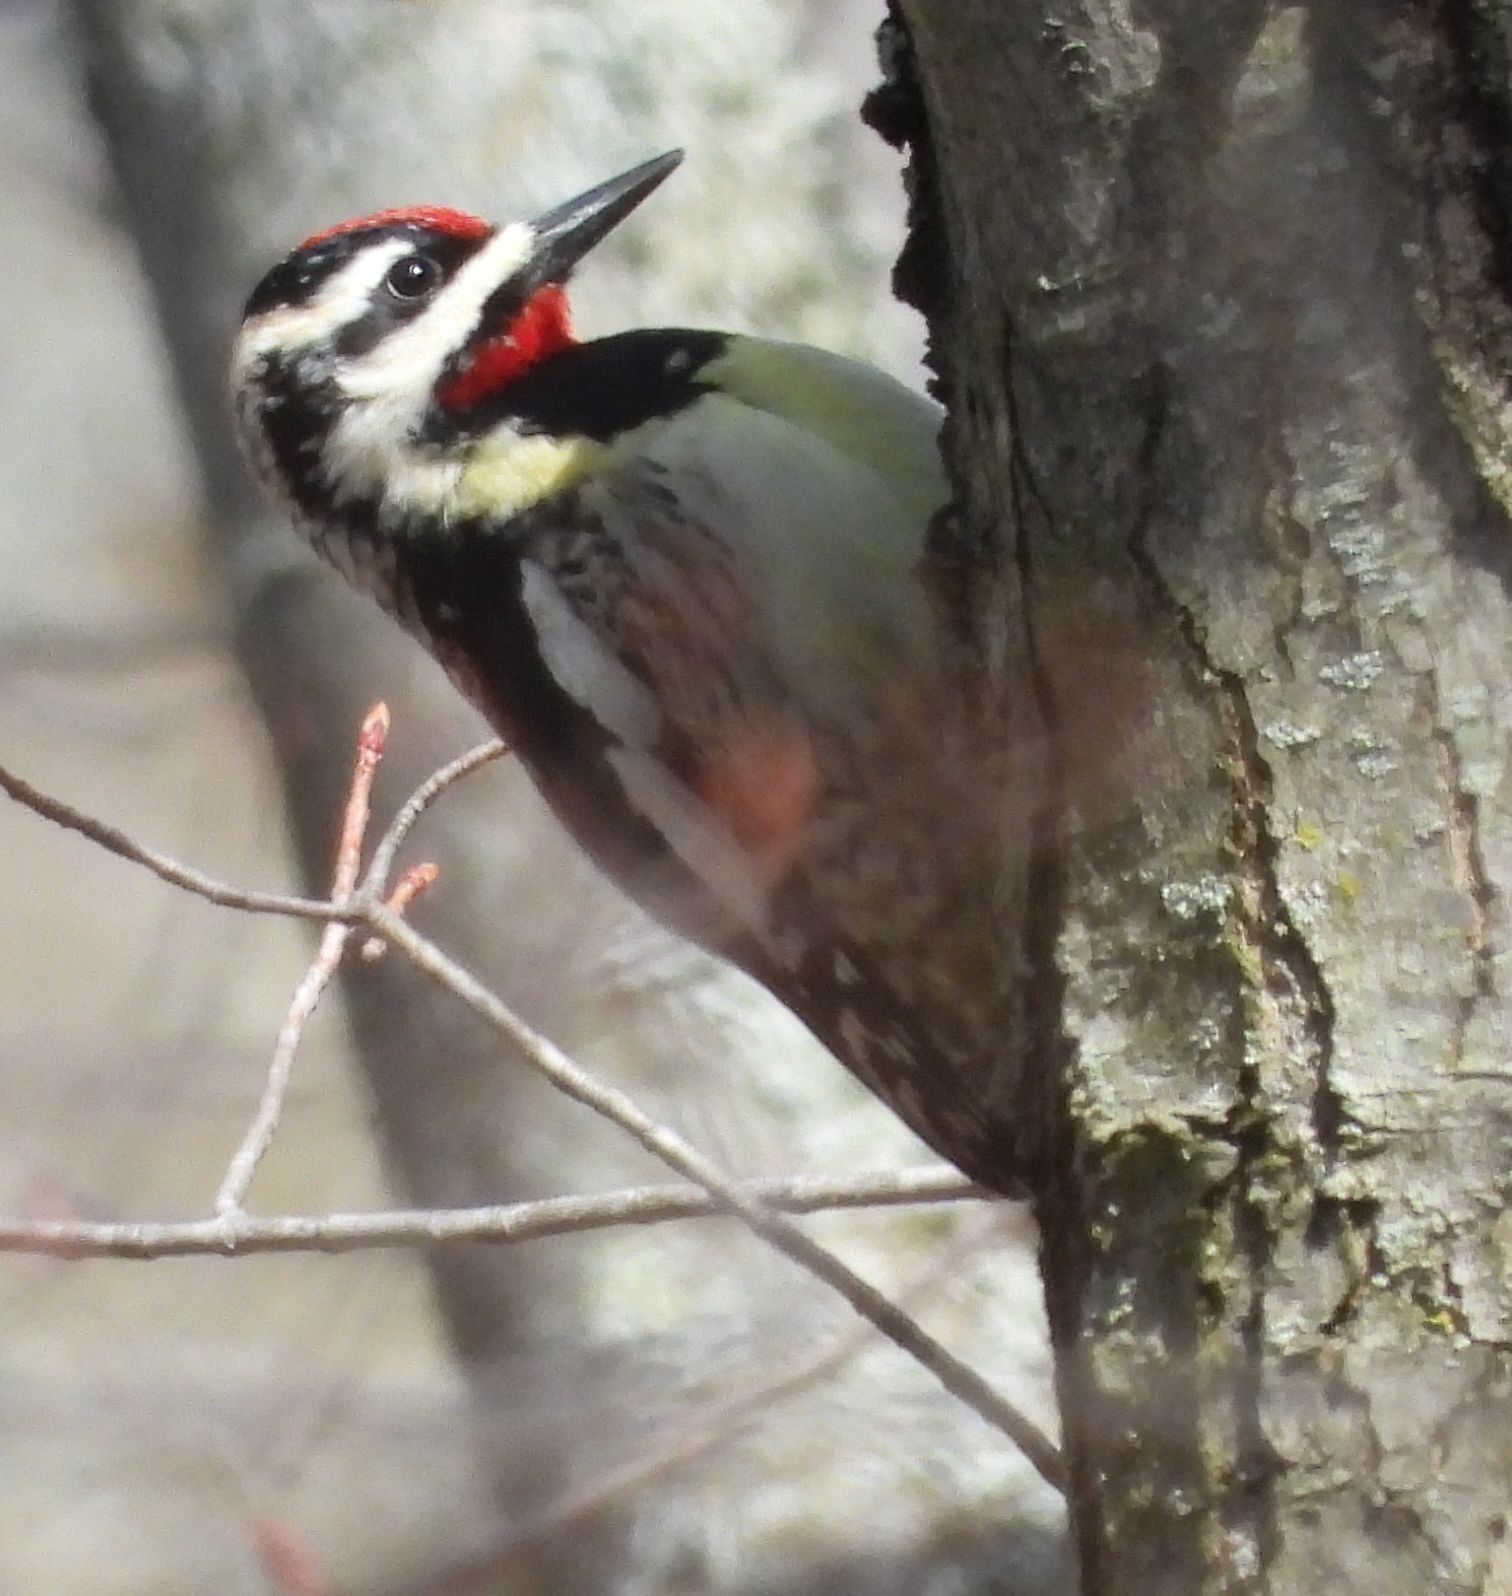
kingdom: Animalia
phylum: Chordata
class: Aves
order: Piciformes
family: Picidae
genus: Sphyrapicus
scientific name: Sphyrapicus varius
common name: Yellow-bellied sapsucker
